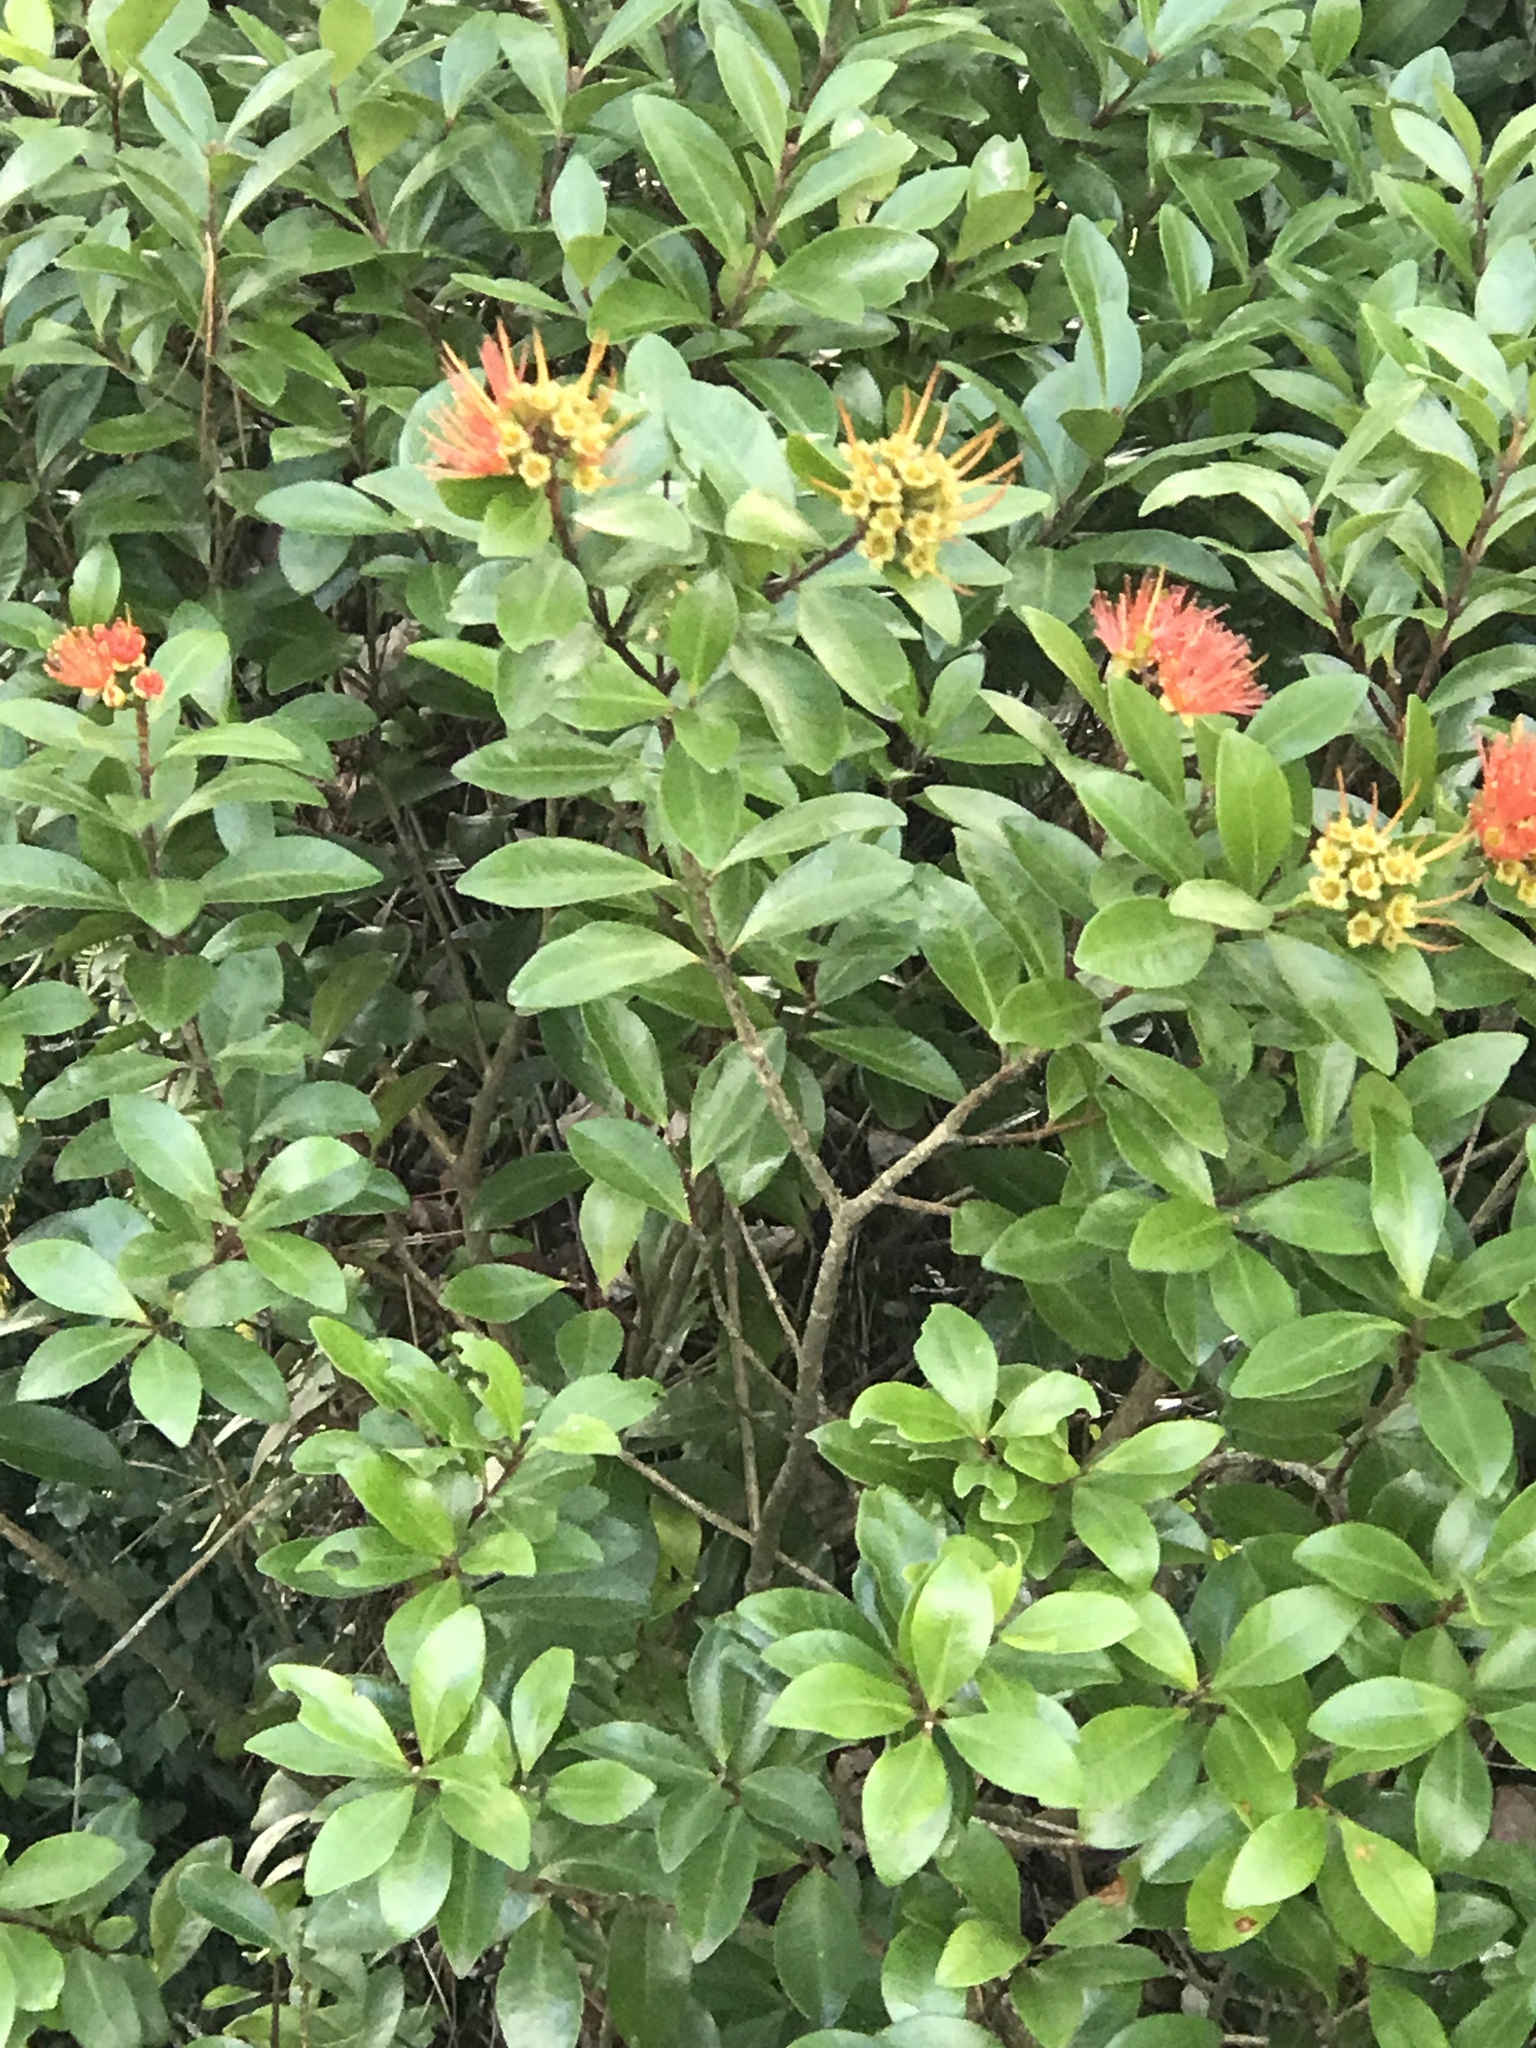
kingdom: Plantae
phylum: Tracheophyta
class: Magnoliopsida
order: Myrtales
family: Myrtaceae
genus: Metrosideros
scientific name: Metrosideros fulgens
